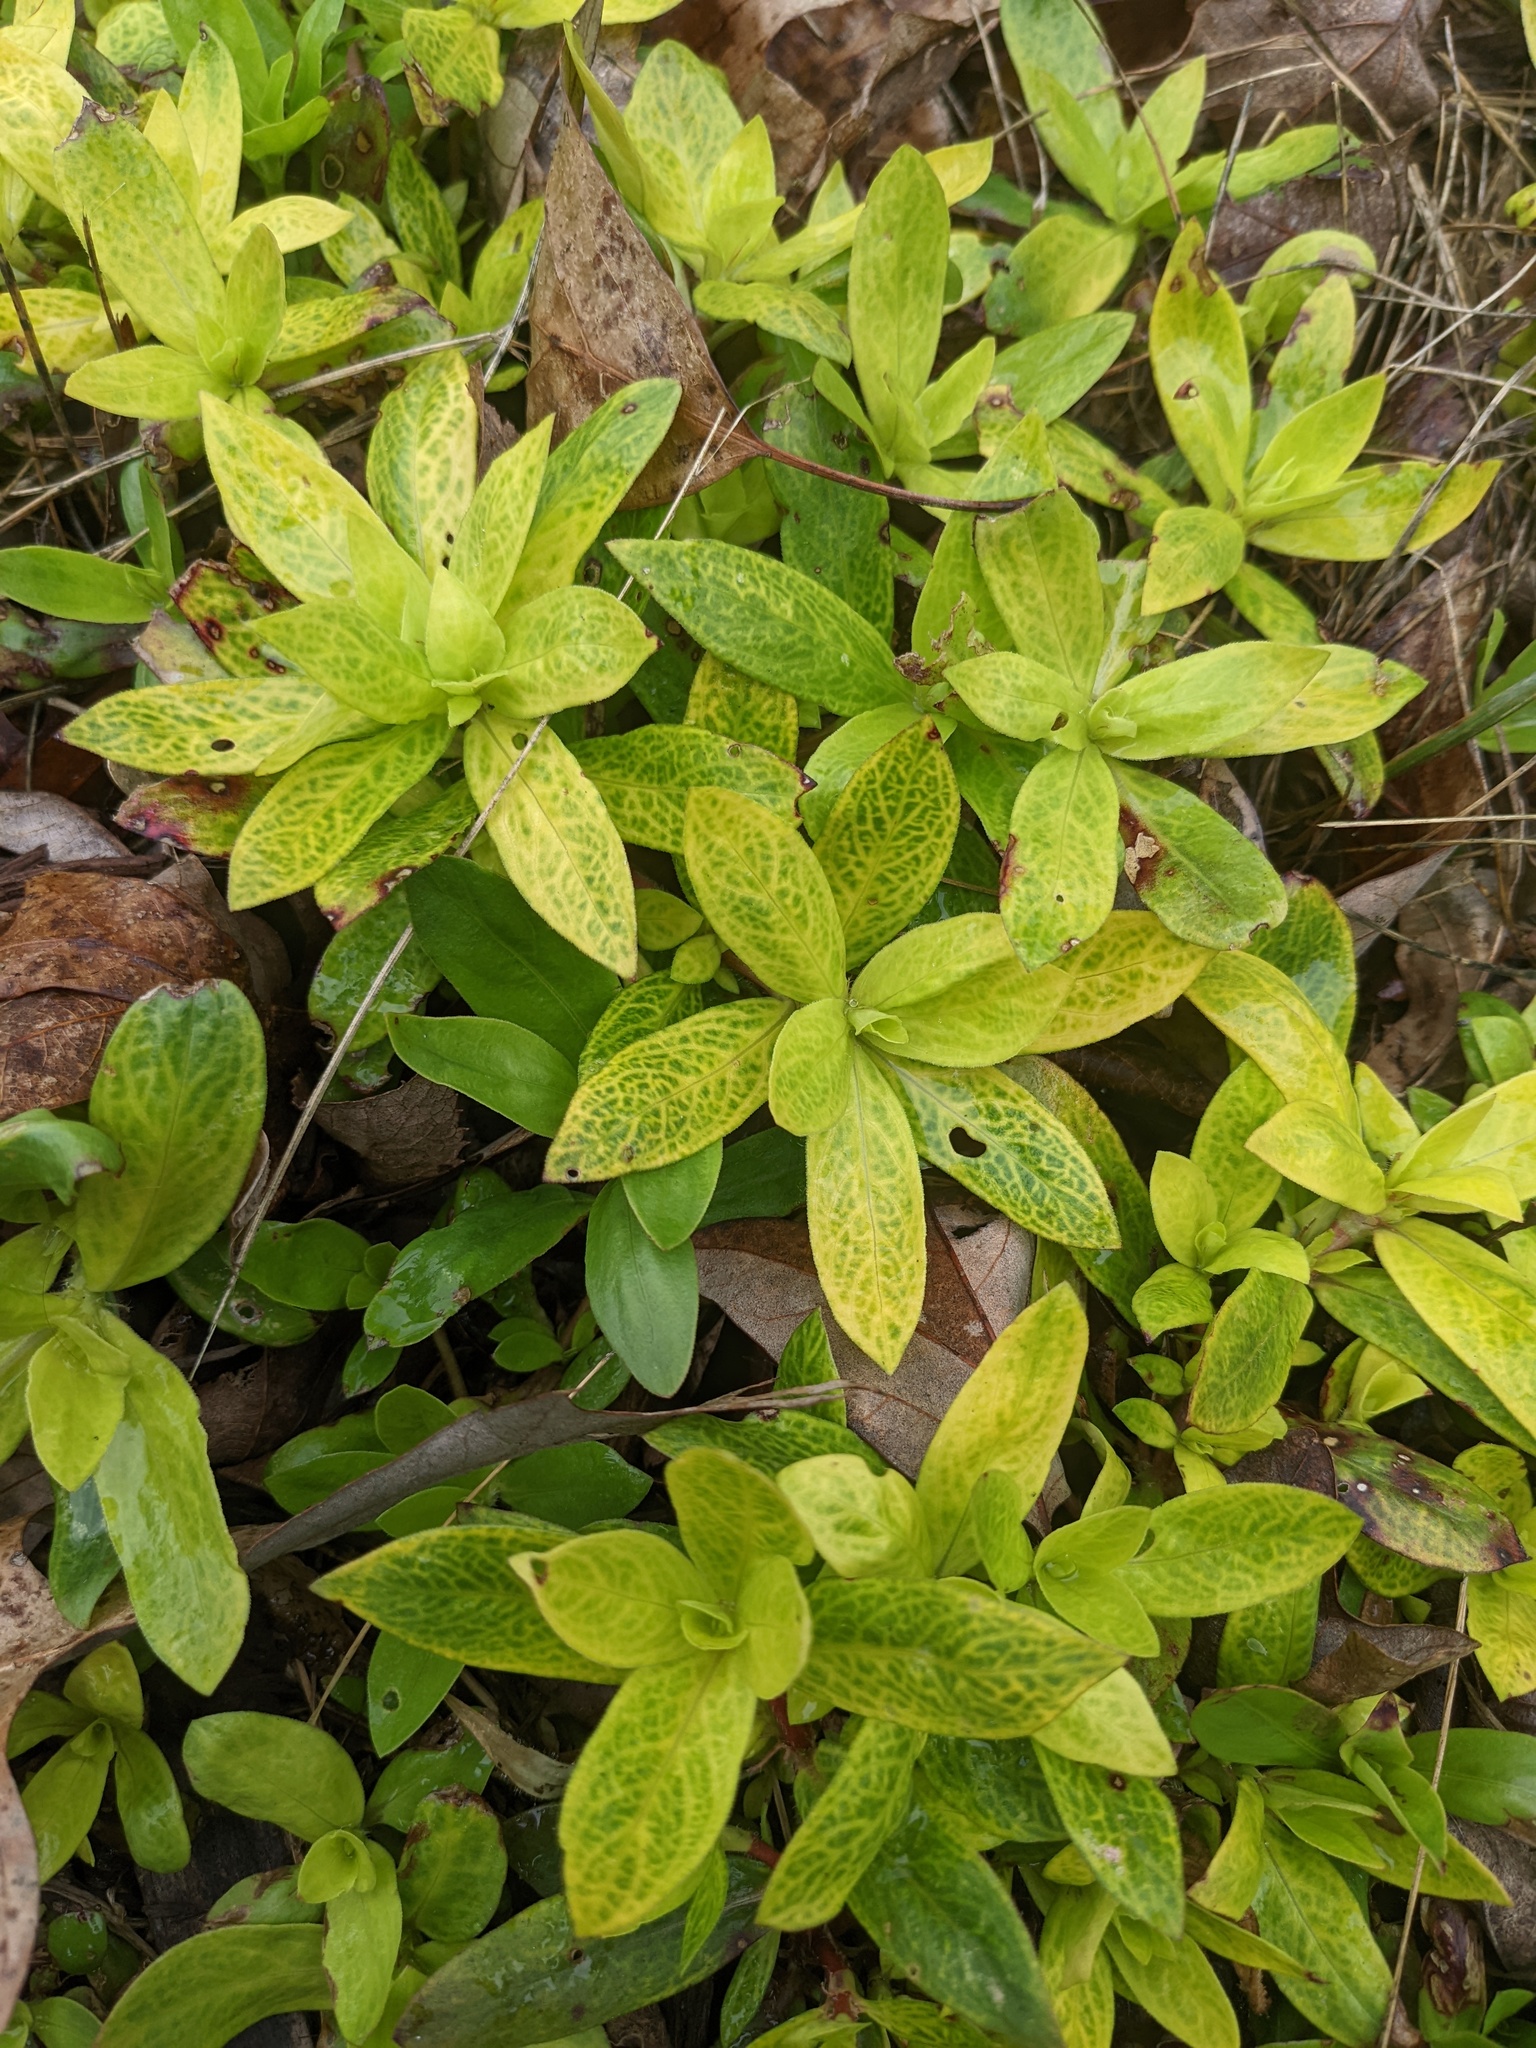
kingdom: Plantae
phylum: Tracheophyta
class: Magnoliopsida
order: Gentianales
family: Rubiaceae
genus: Diodia
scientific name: Diodia virginiana
